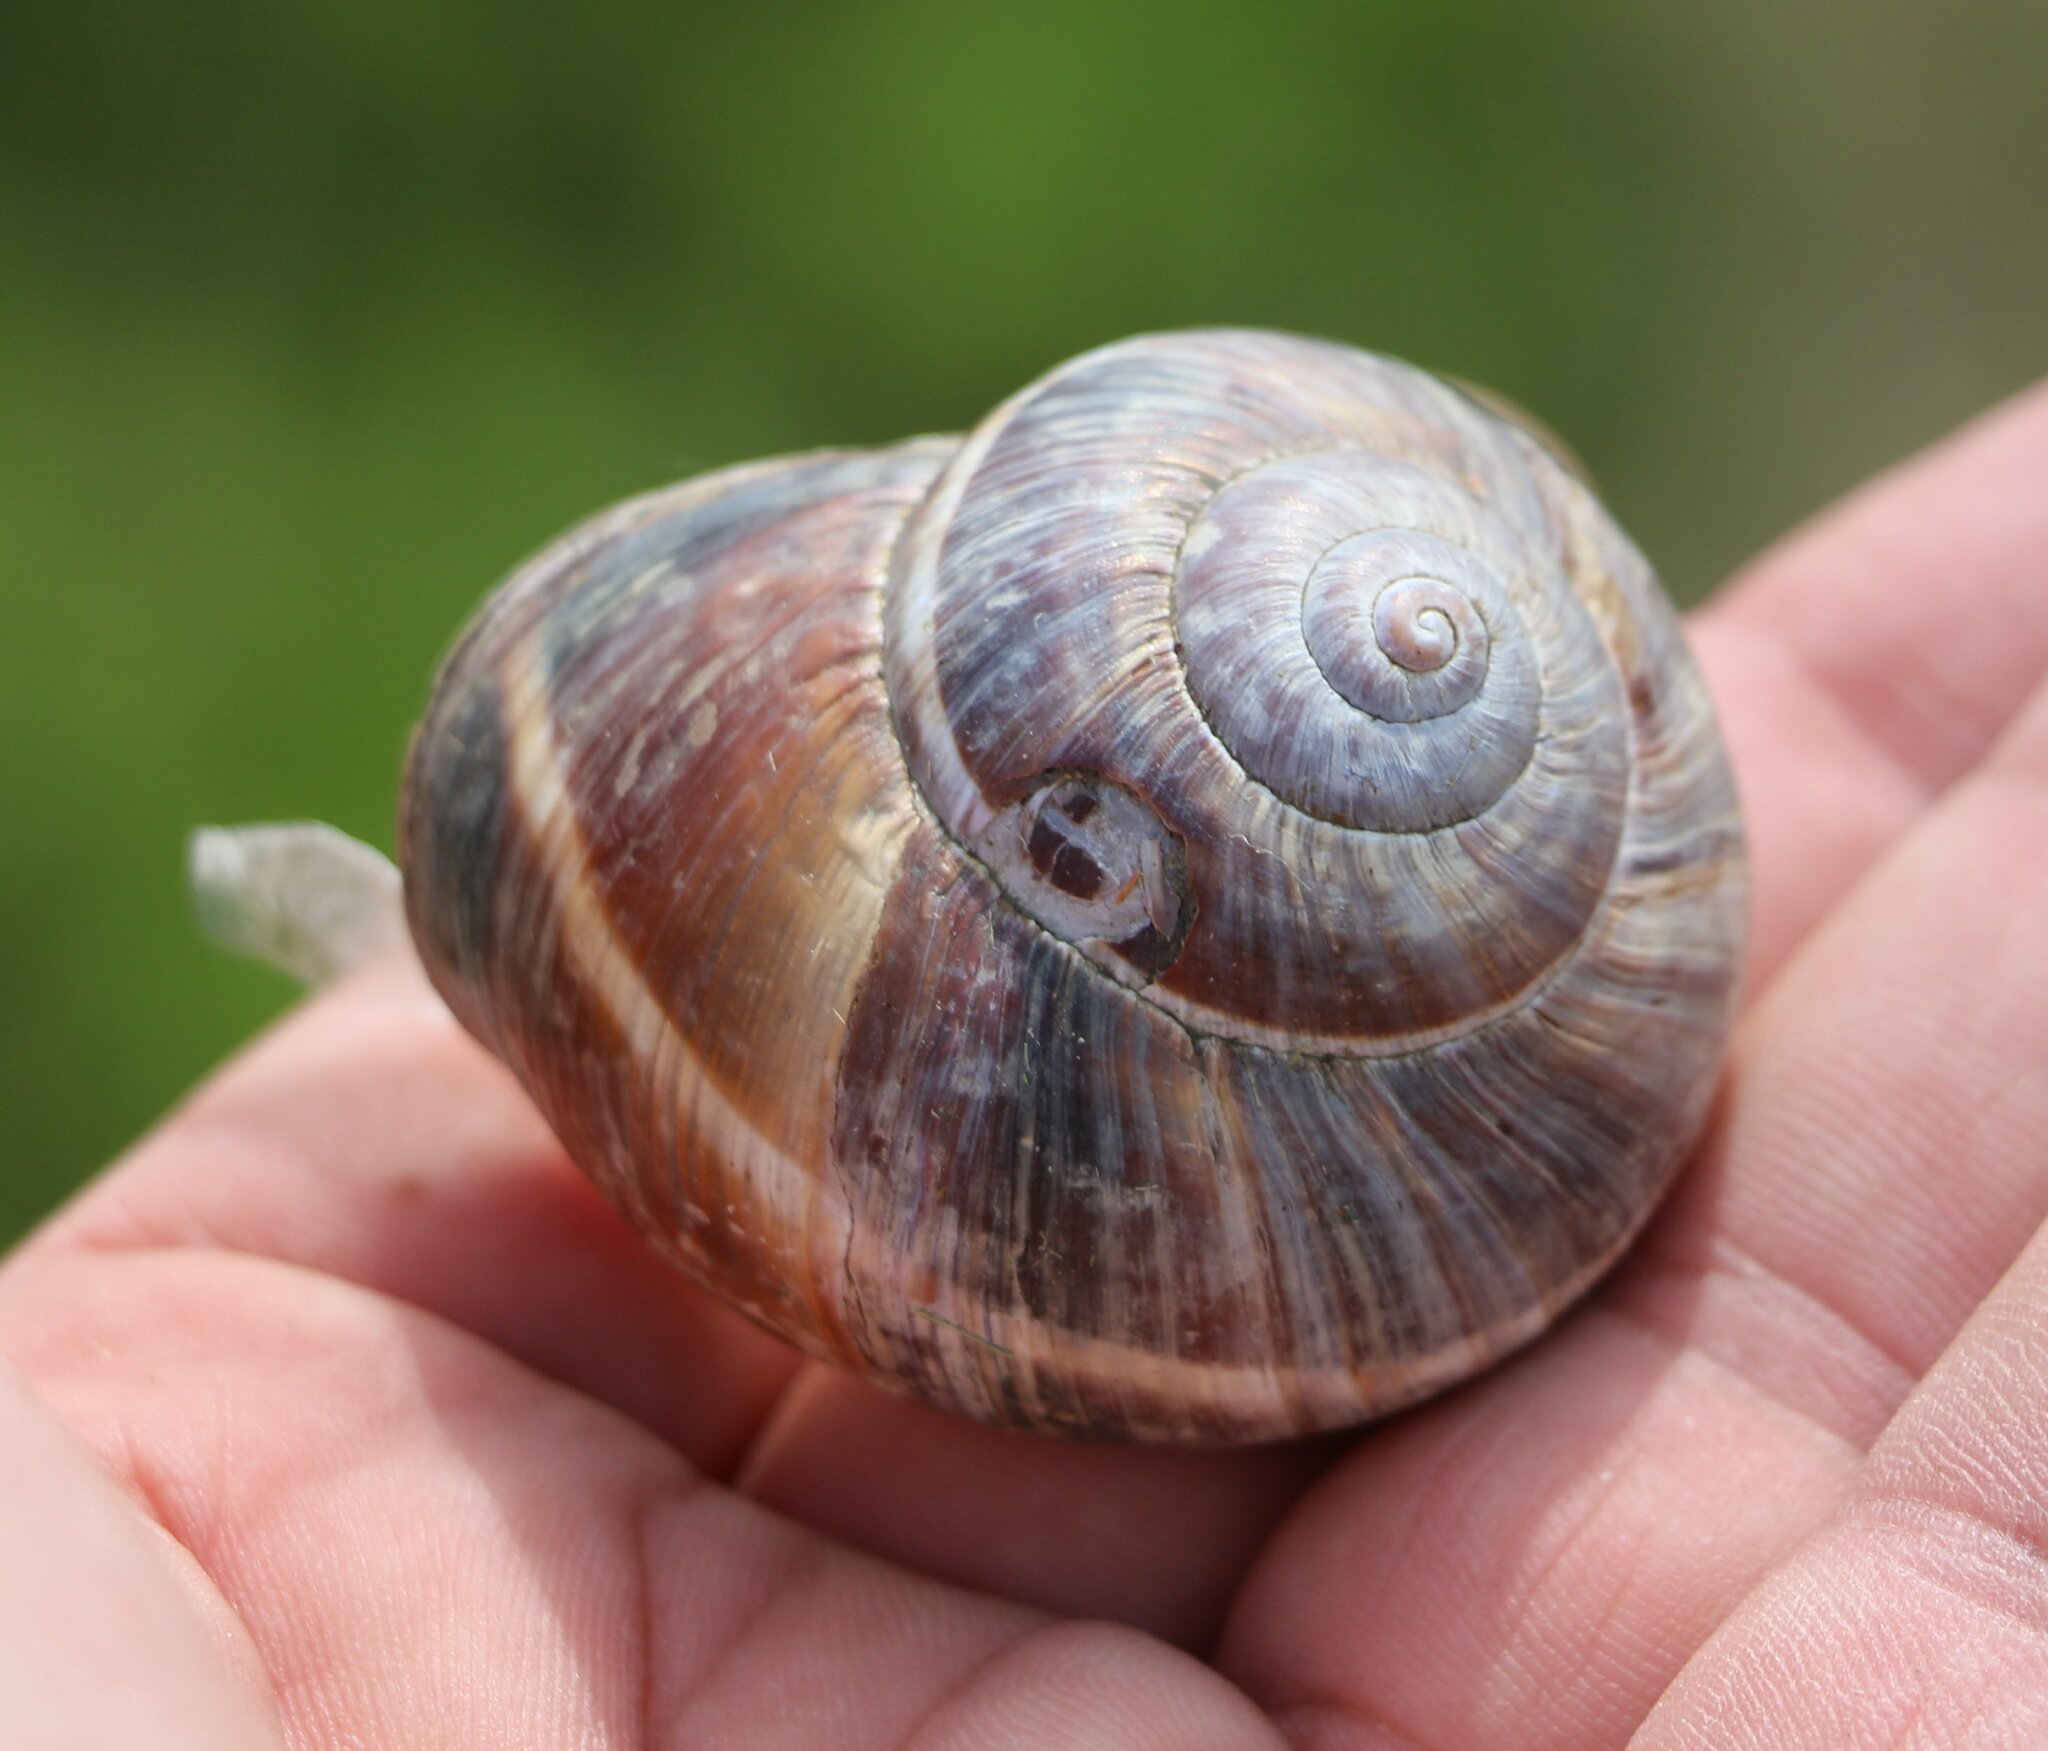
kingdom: Animalia
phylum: Mollusca
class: Gastropoda
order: Stylommatophora
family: Helicidae
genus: Helix
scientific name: Helix lucorum
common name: Turkish snail
